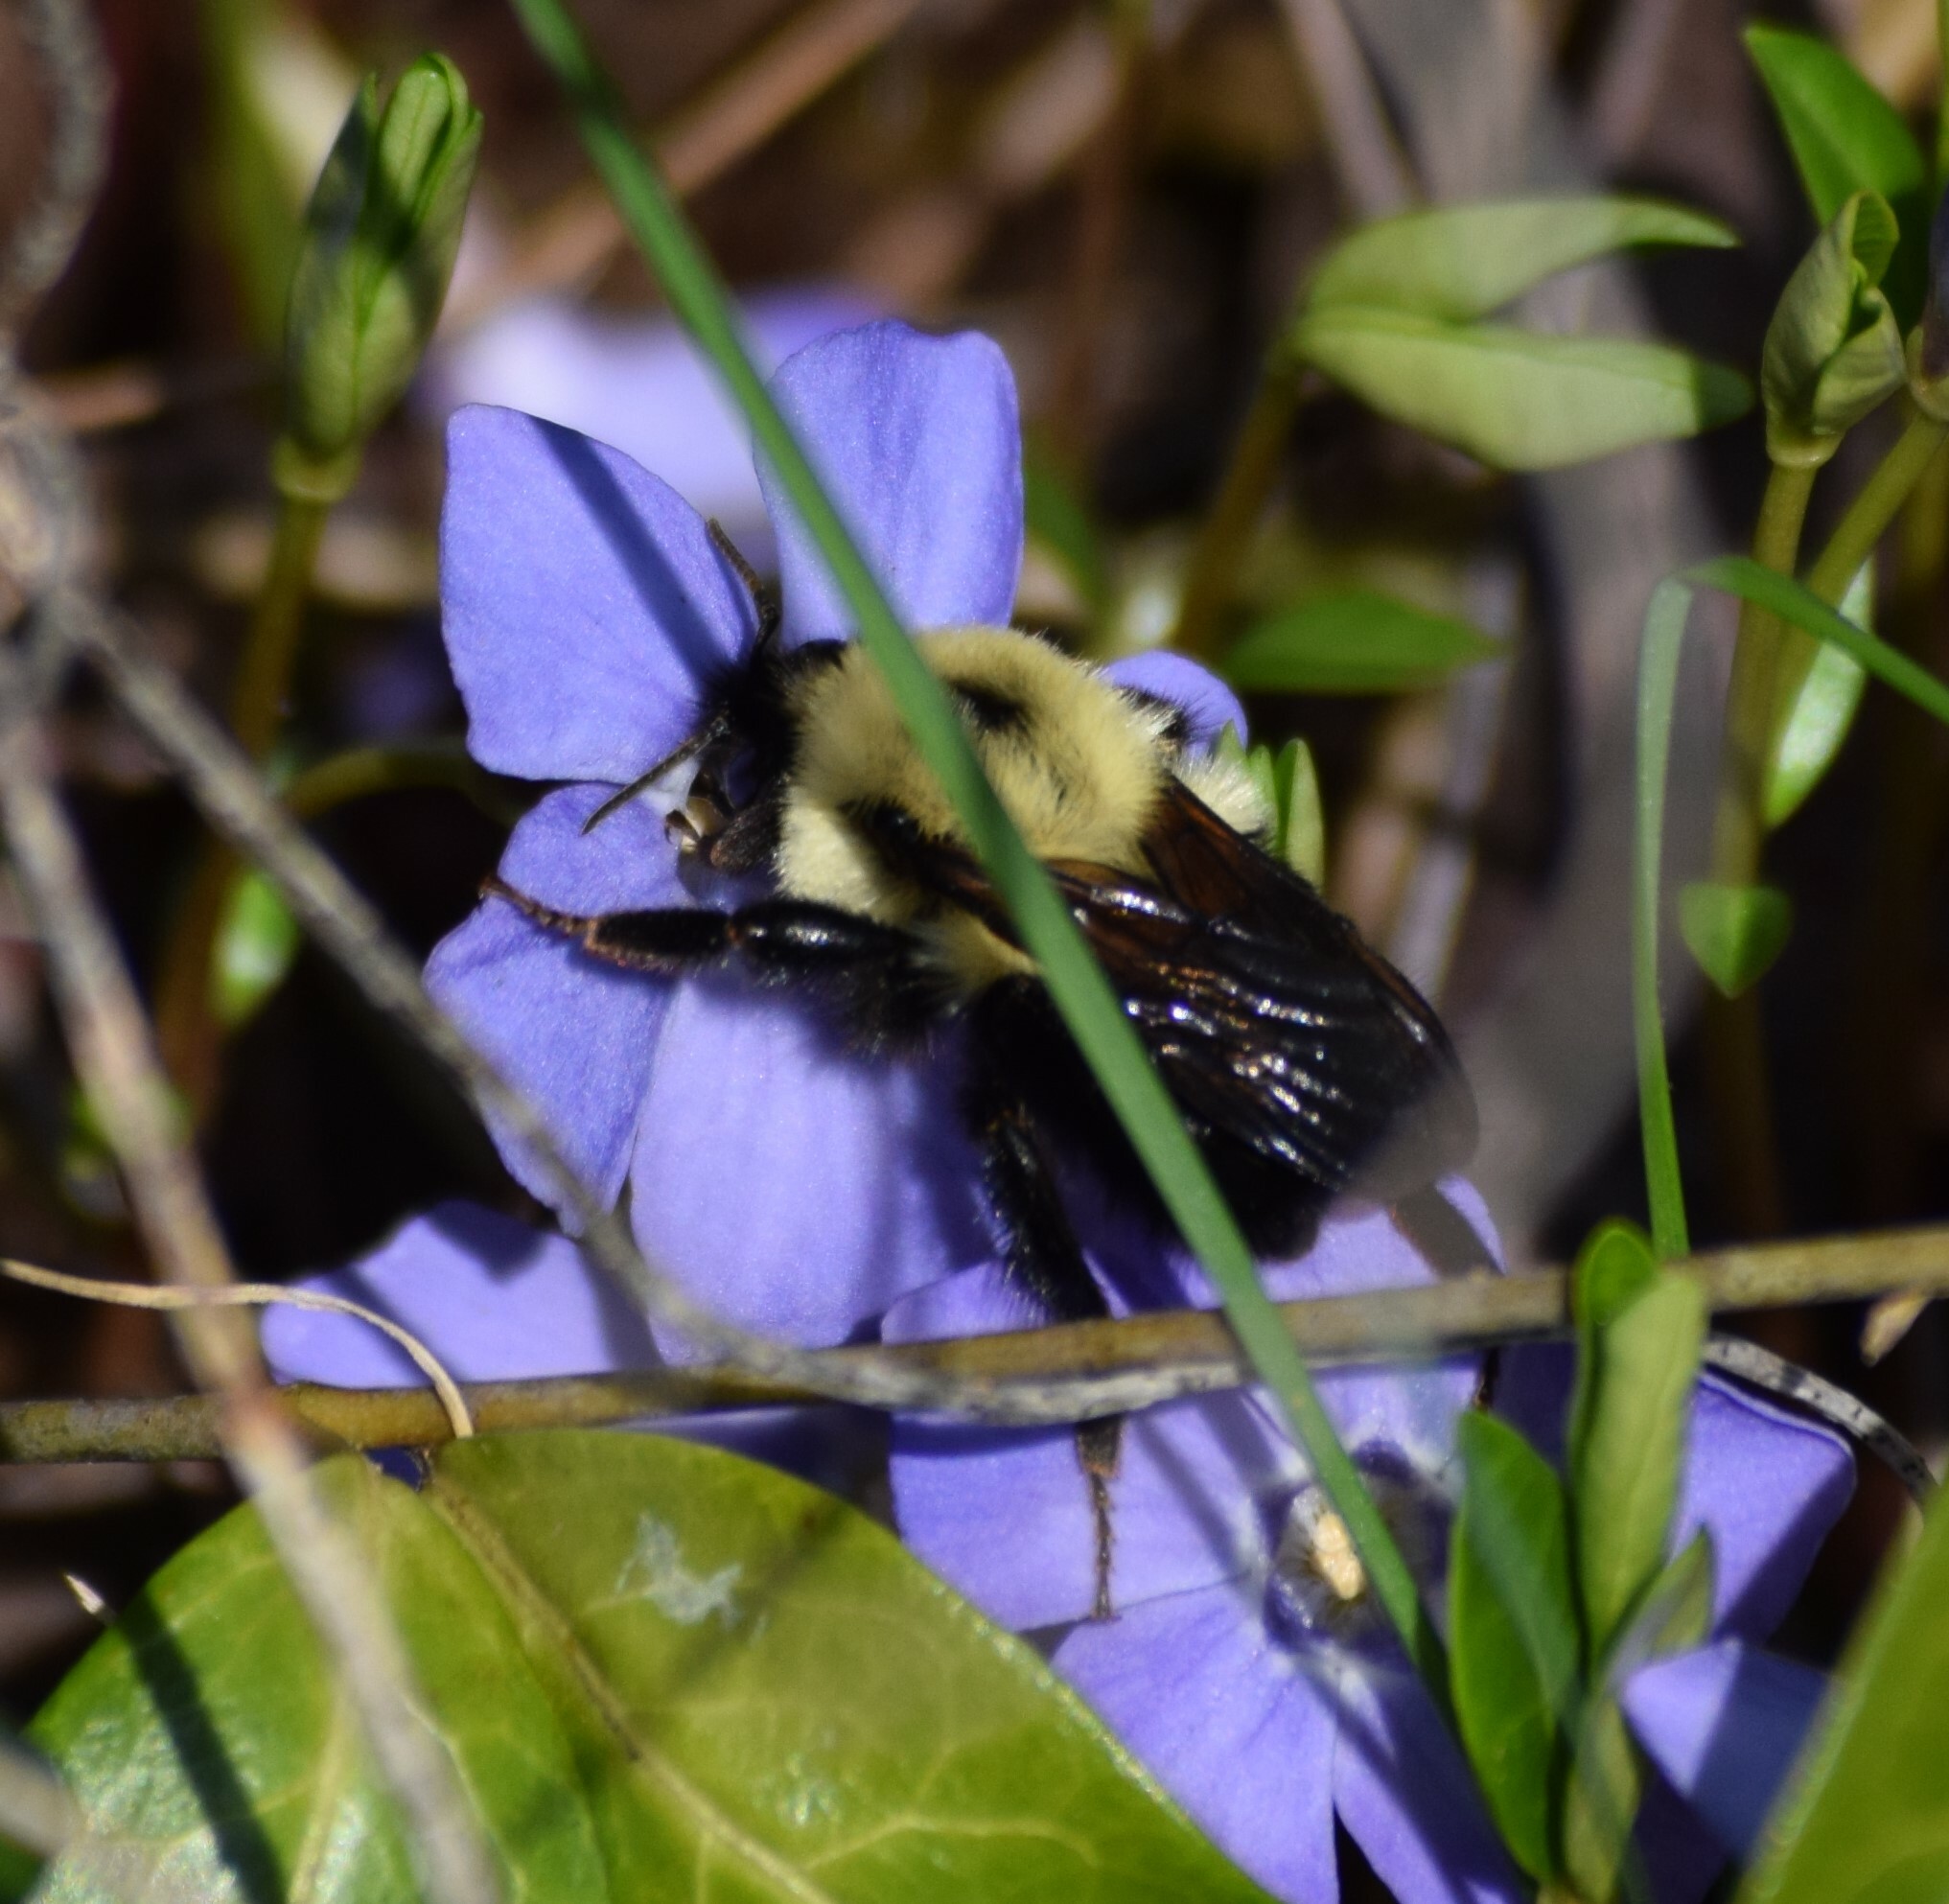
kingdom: Animalia
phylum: Arthropoda
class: Insecta
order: Hymenoptera
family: Apidae
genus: Bombus
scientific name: Bombus bimaculatus
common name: Two-spotted bumble bee
